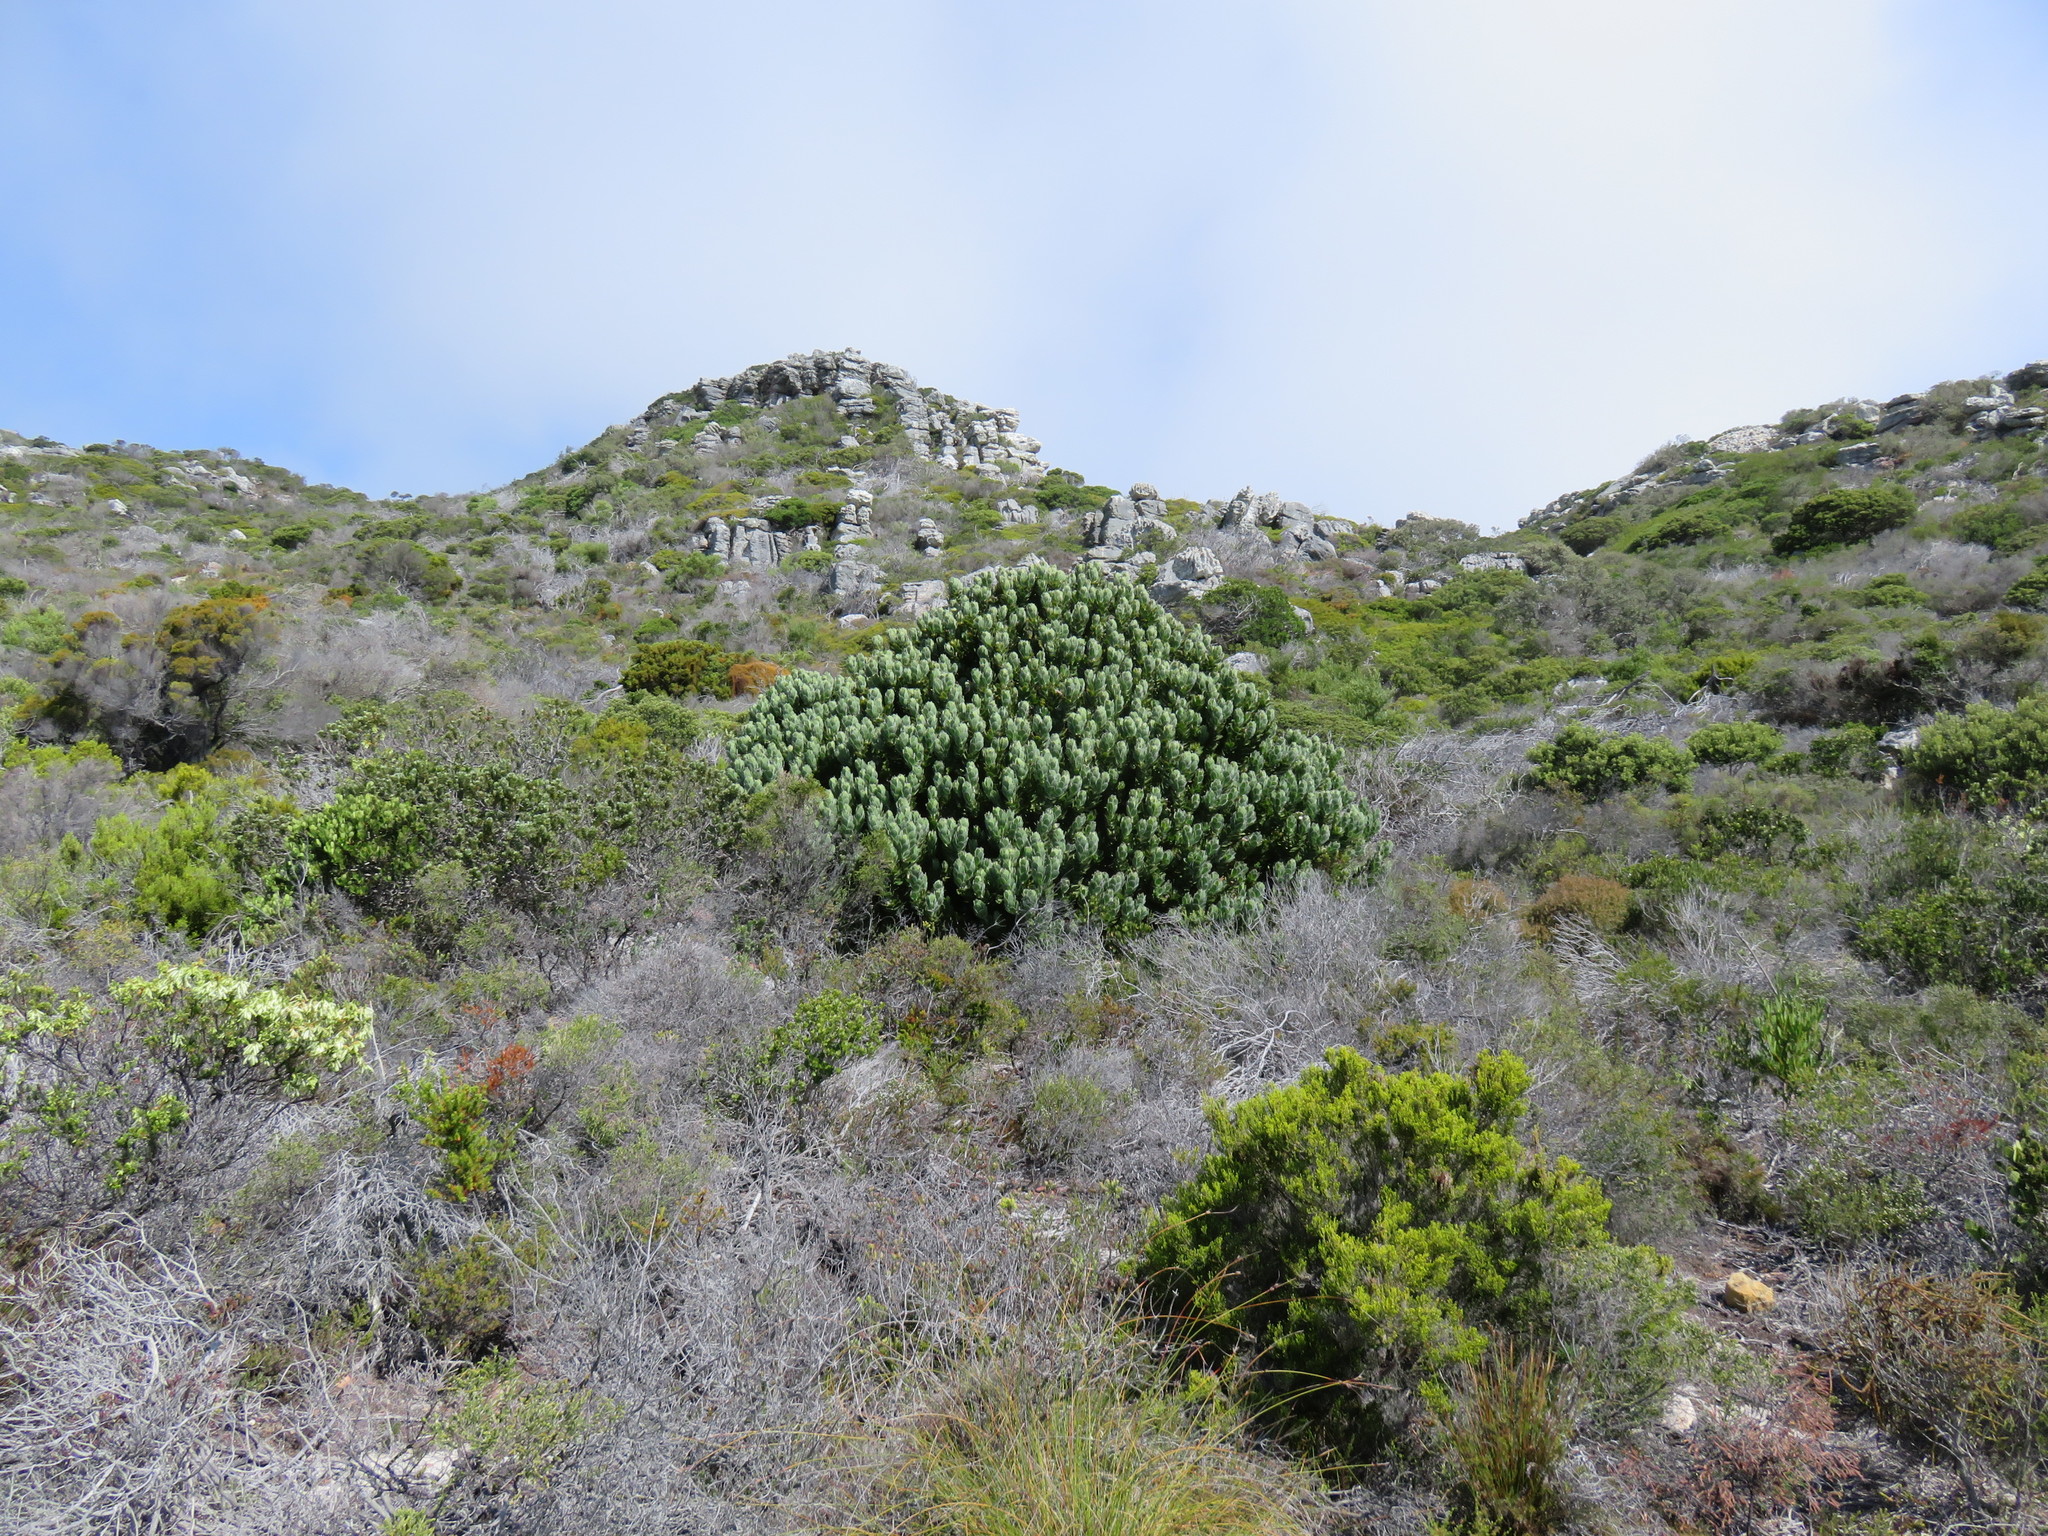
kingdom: Plantae
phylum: Tracheophyta
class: Magnoliopsida
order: Proteales
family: Proteaceae
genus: Leucospermum
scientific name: Leucospermum conocarpodendron
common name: Tree pincushion
